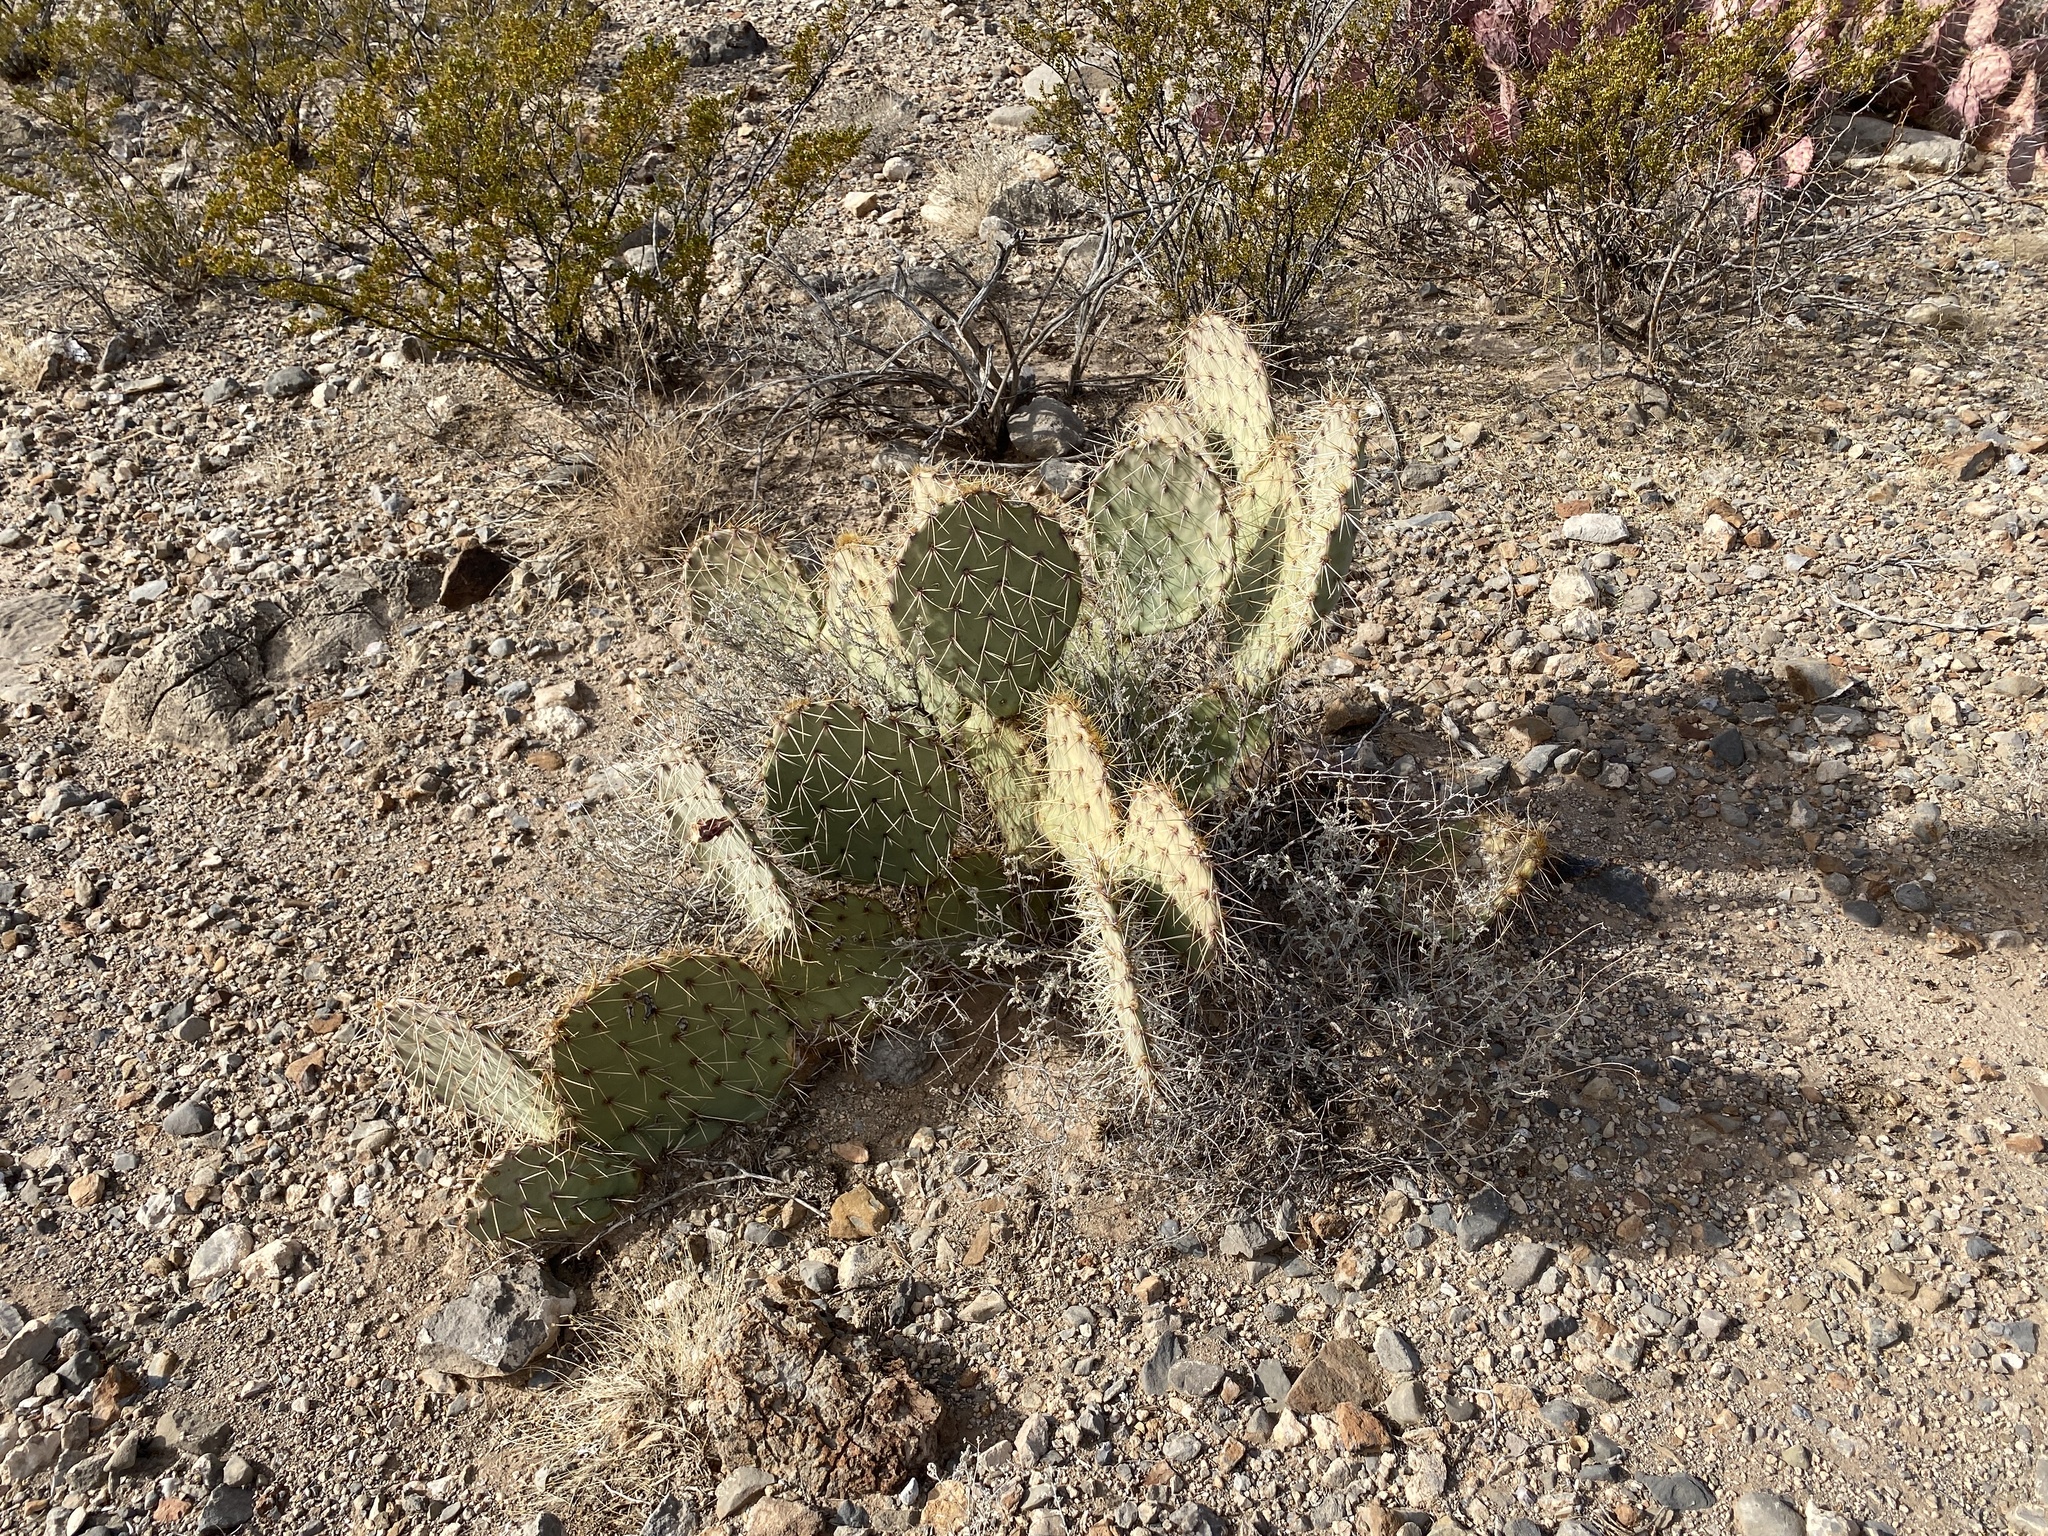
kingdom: Plantae
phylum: Tracheophyta
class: Magnoliopsida
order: Caryophyllales
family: Cactaceae
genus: Opuntia
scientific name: Opuntia phaeacantha
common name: New mexico prickly-pear
